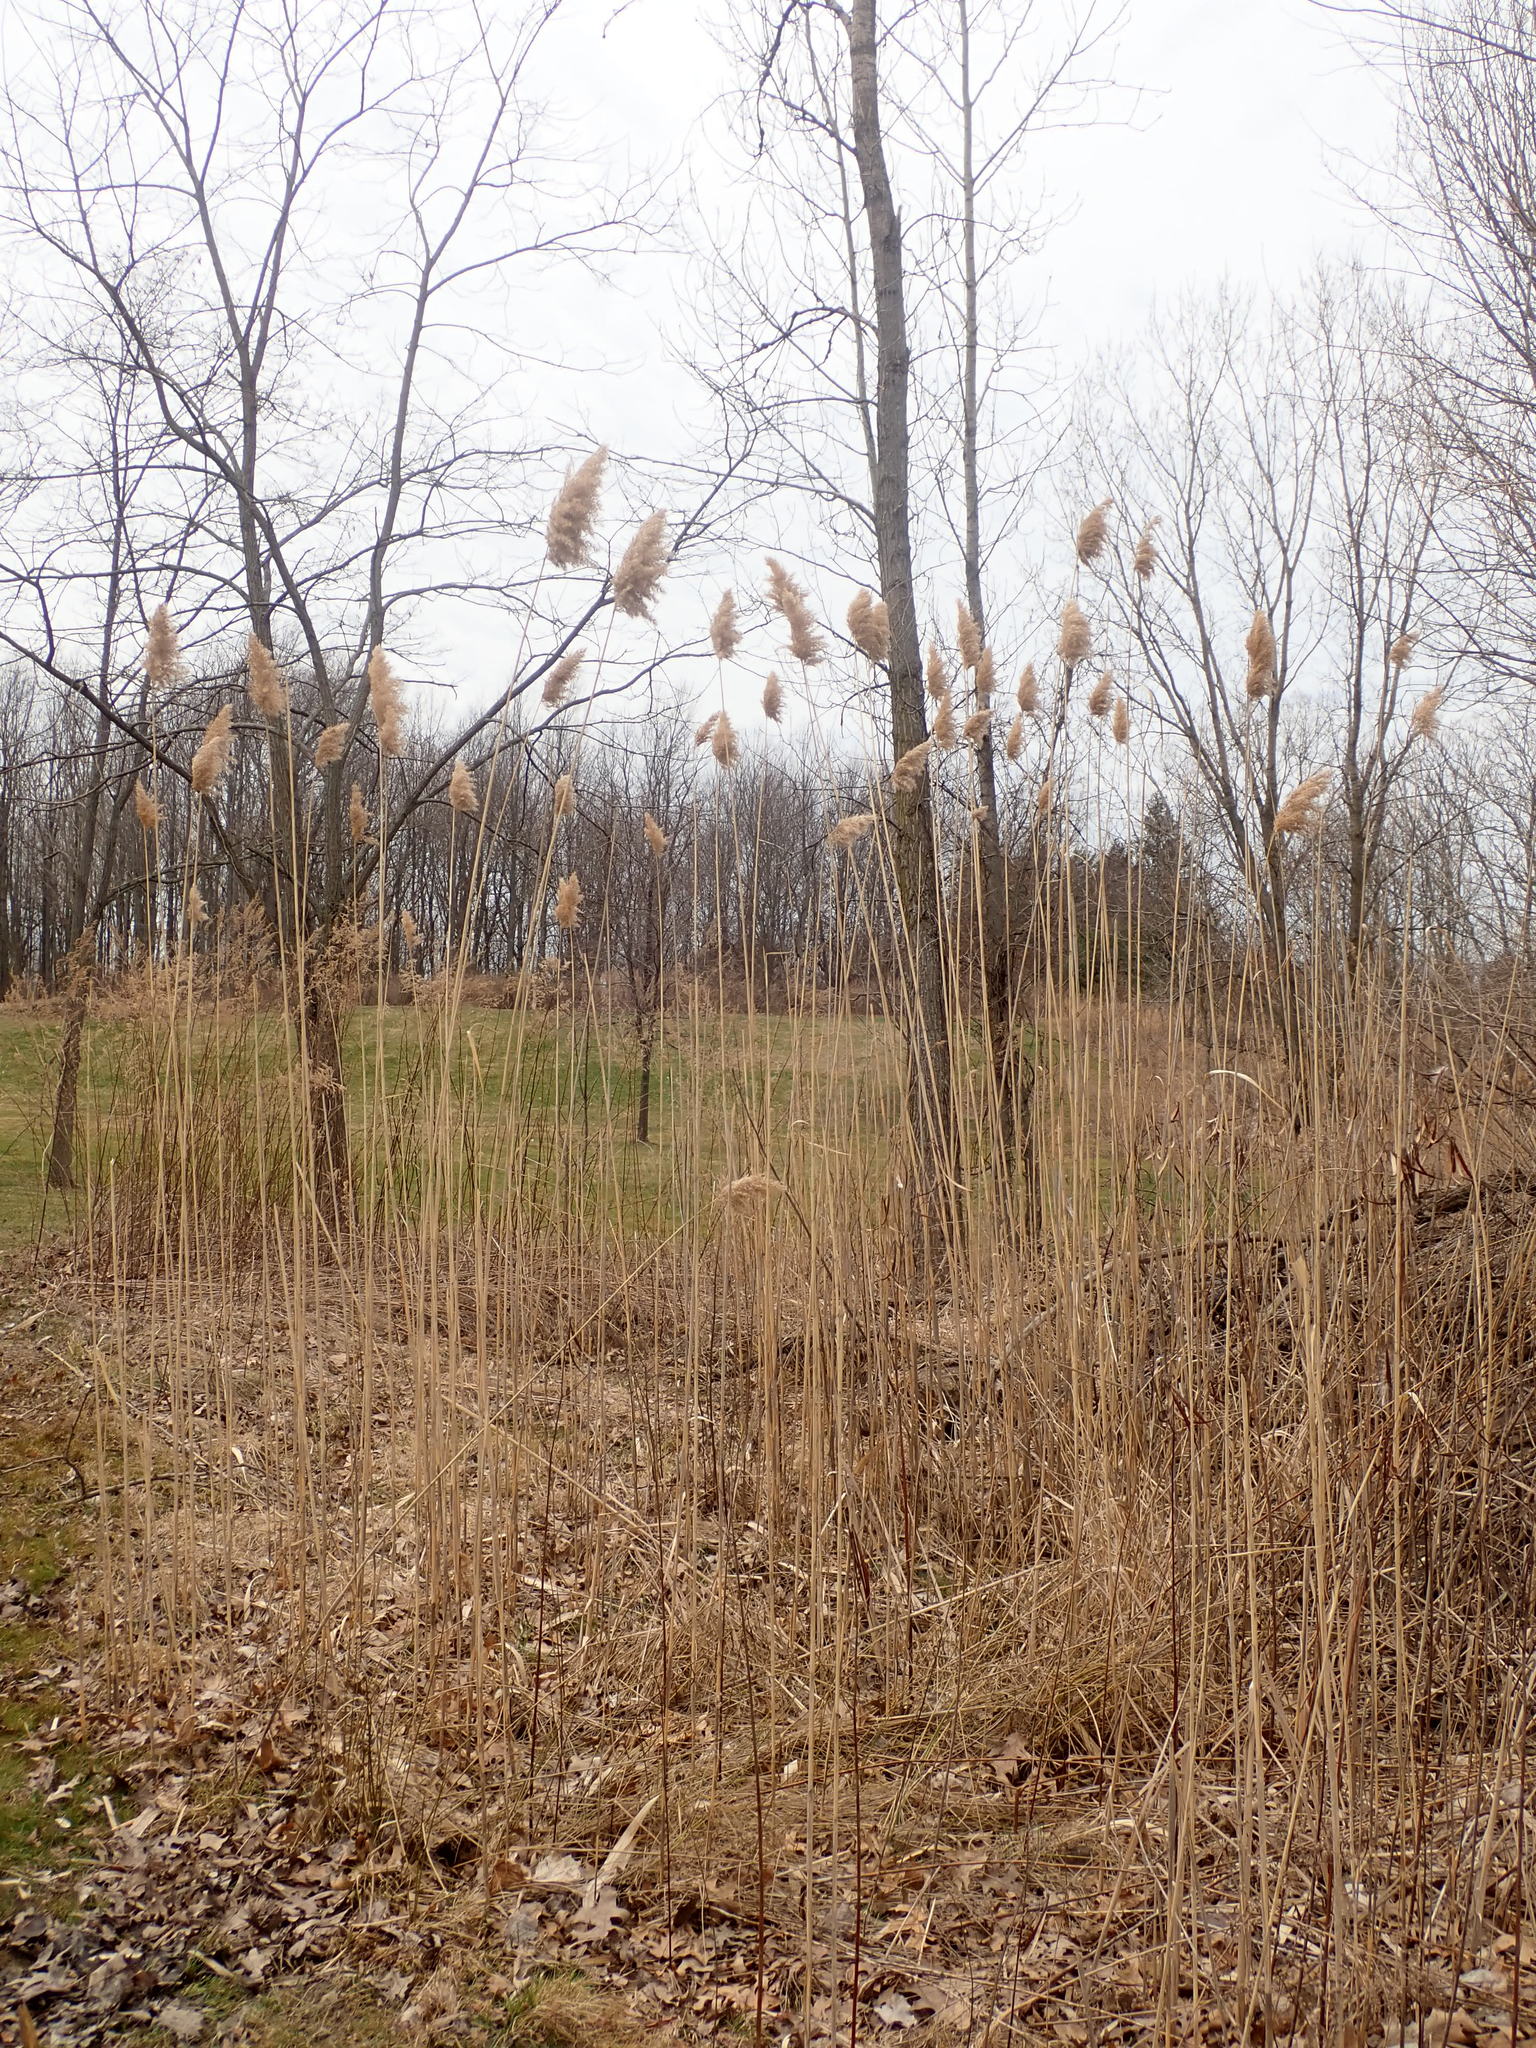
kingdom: Plantae
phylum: Tracheophyta
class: Liliopsida
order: Poales
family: Poaceae
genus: Phragmites
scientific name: Phragmites australis
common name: Common reed
